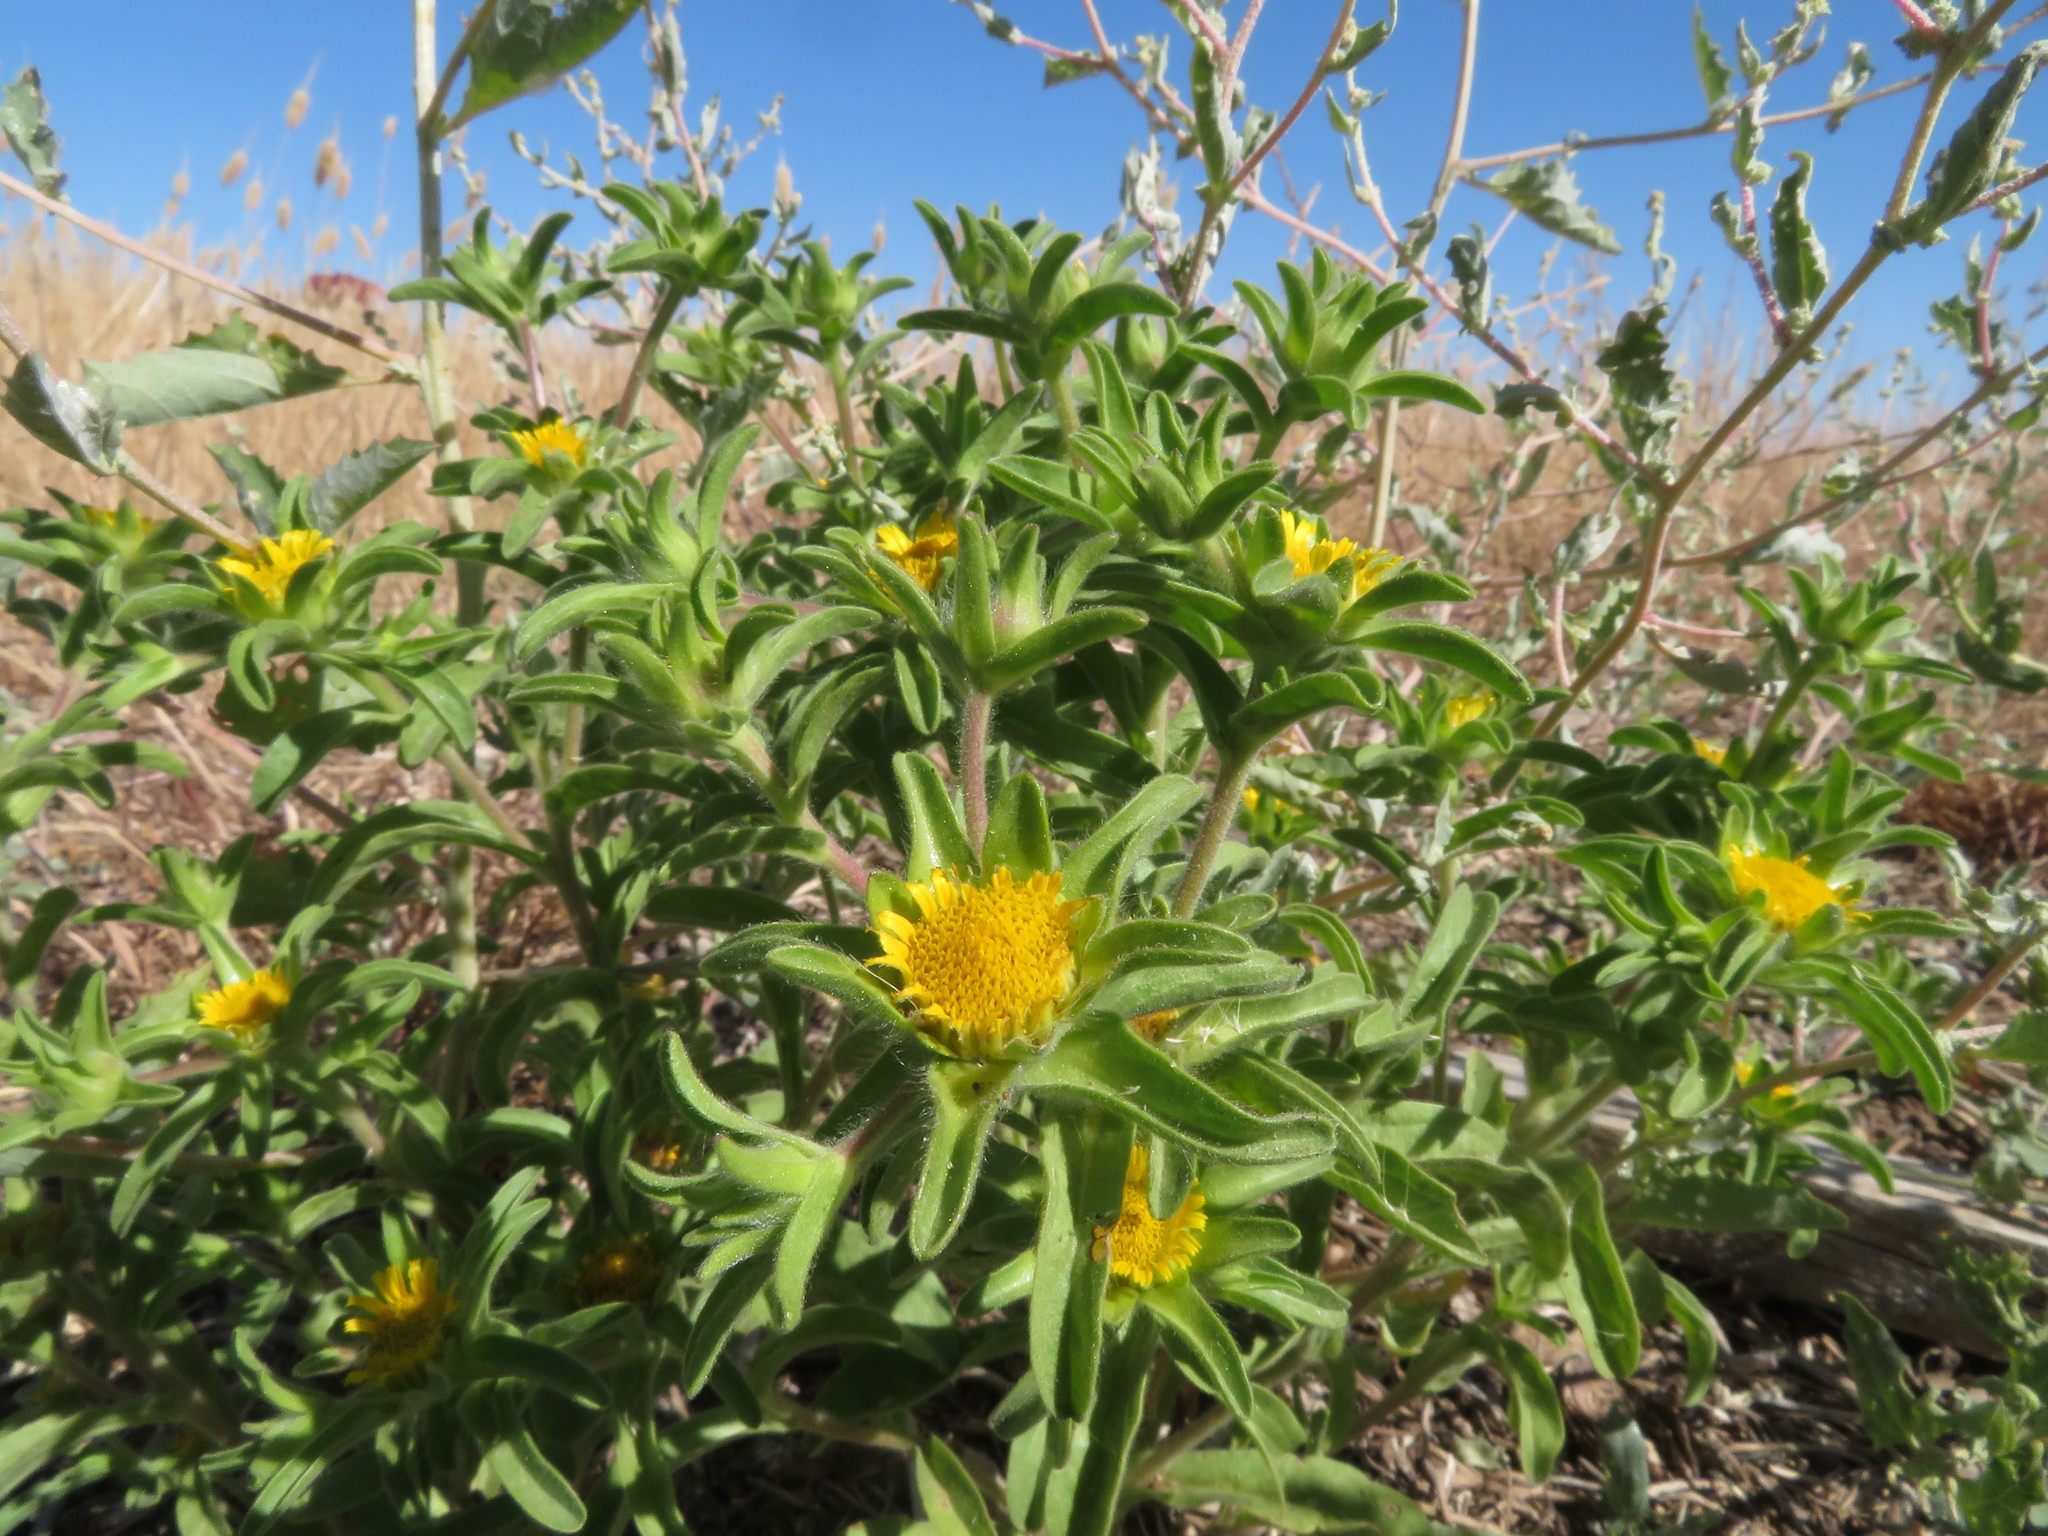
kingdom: Plantae
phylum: Tracheophyta
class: Magnoliopsida
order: Asterales
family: Asteraceae
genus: Asteriscus
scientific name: Asteriscus aquaticus
